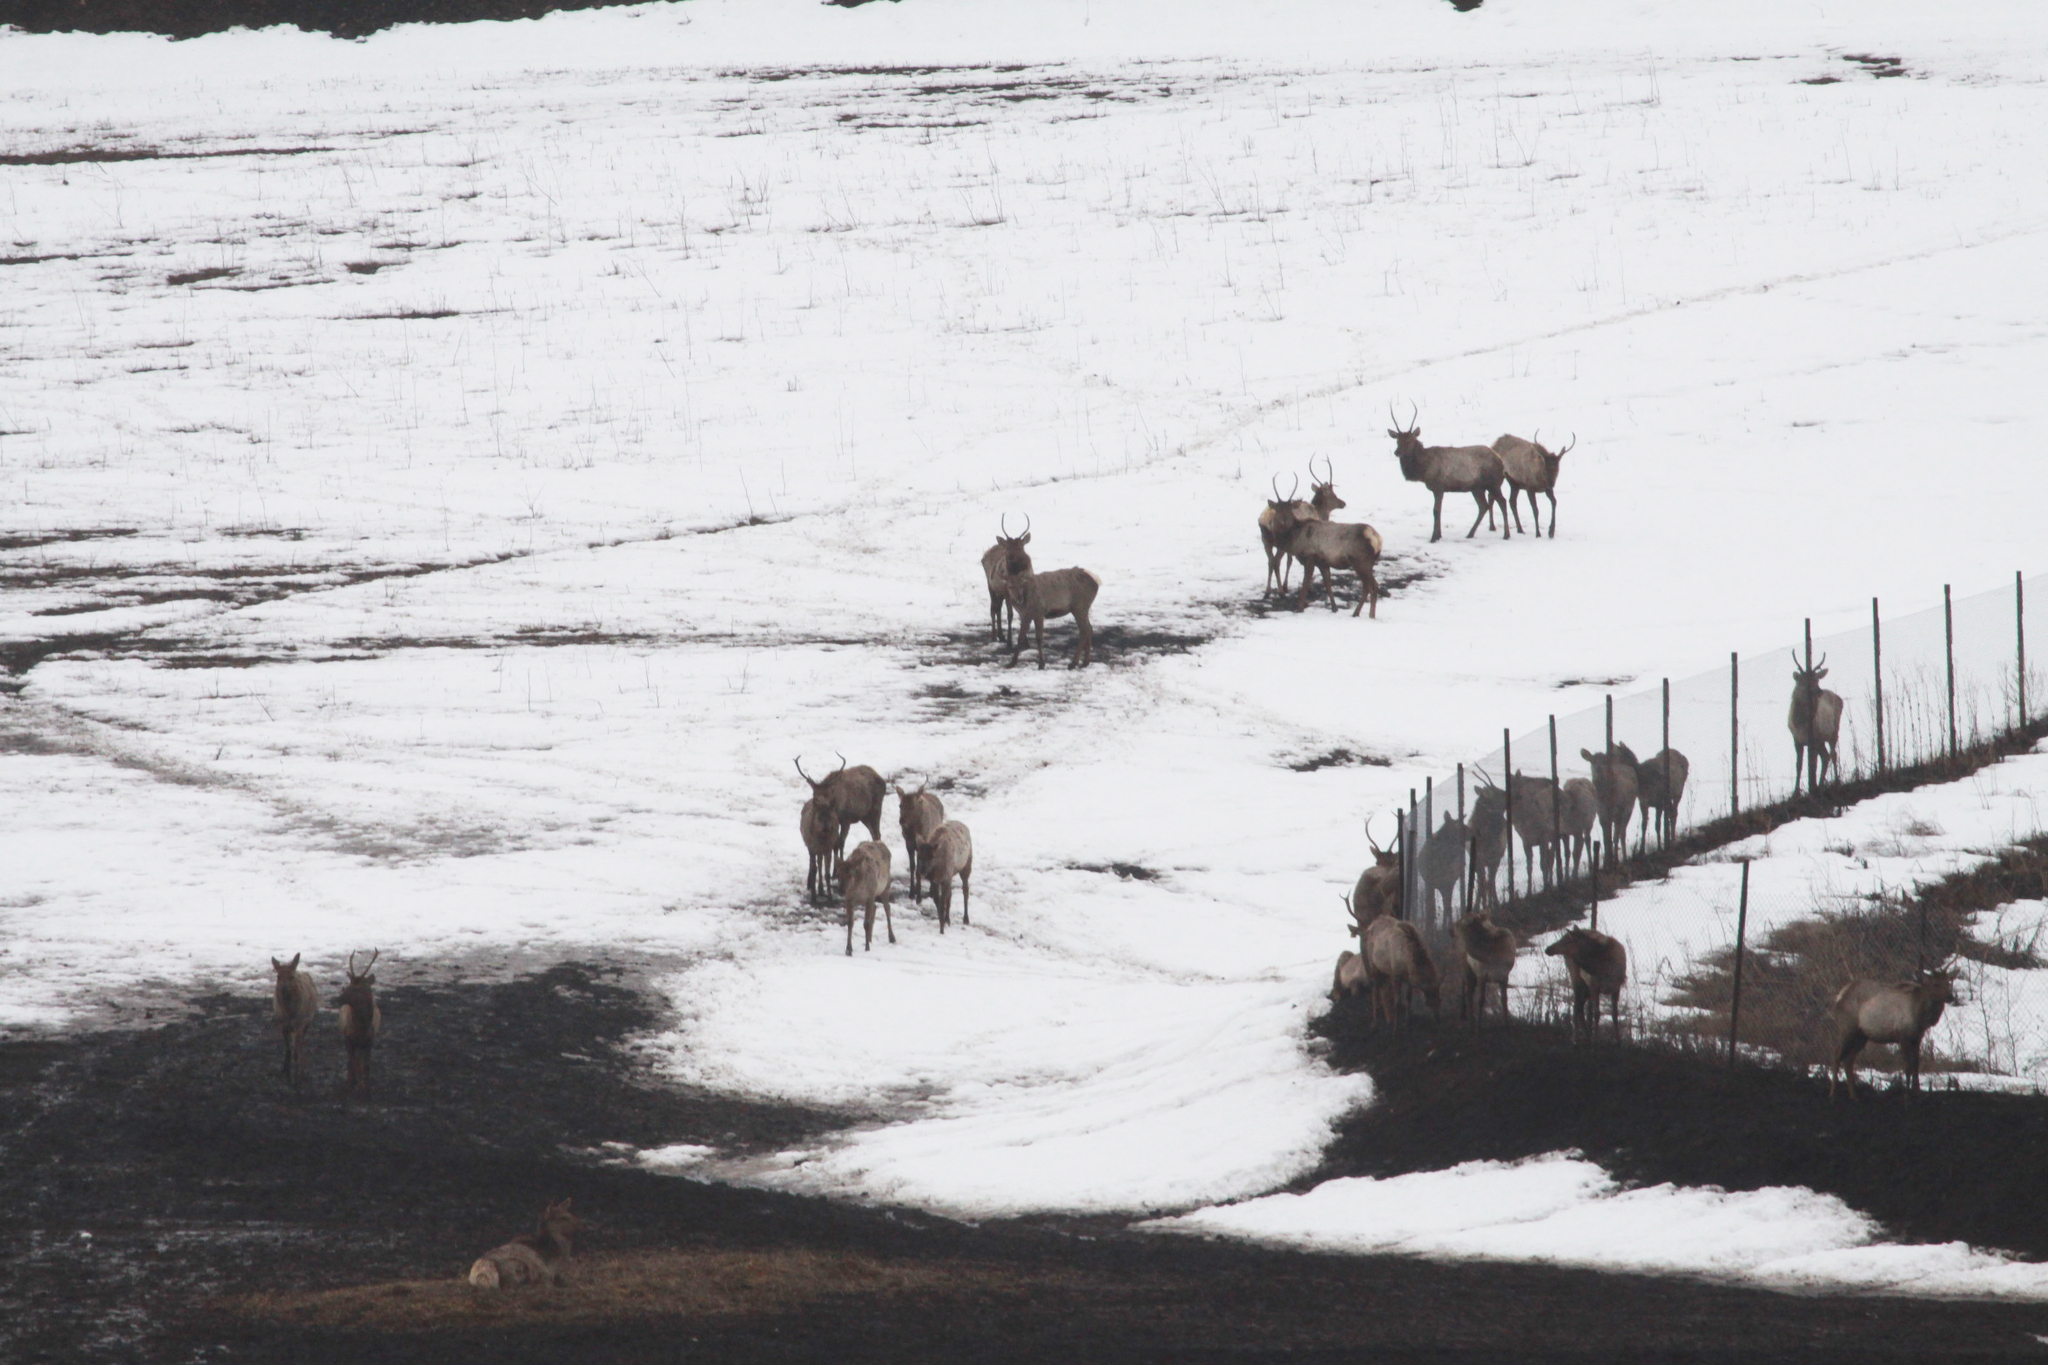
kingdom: Animalia
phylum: Chordata
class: Mammalia
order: Artiodactyla
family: Cervidae
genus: Cervus
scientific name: Cervus elaphus
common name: Red deer
